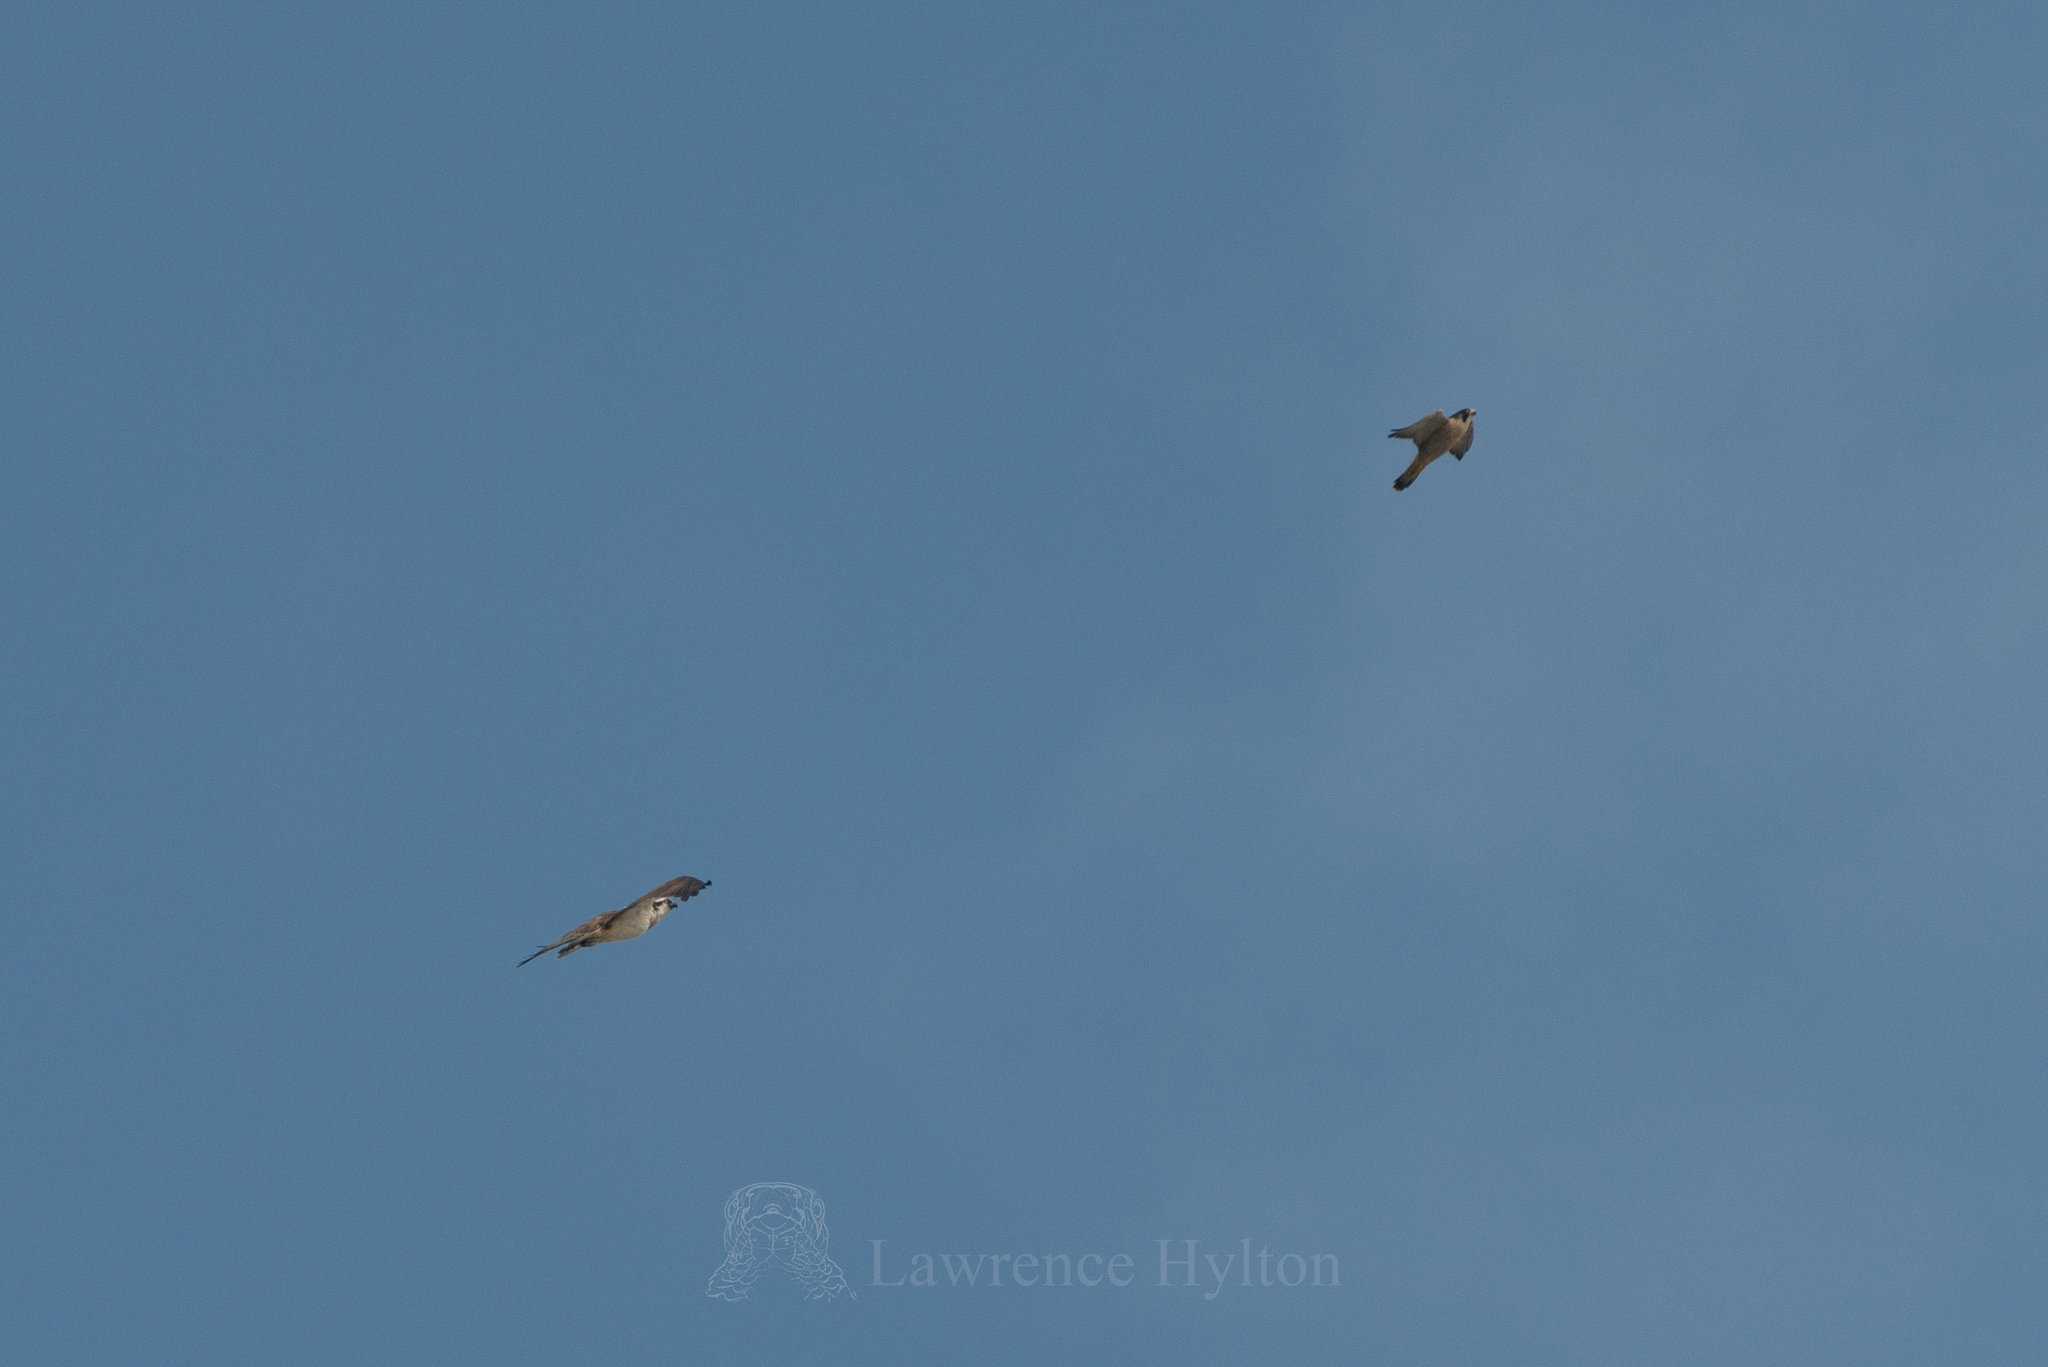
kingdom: Animalia
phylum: Chordata
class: Aves
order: Falconiformes
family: Falconidae
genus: Falco
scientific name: Falco peregrinus
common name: Peregrine falcon
